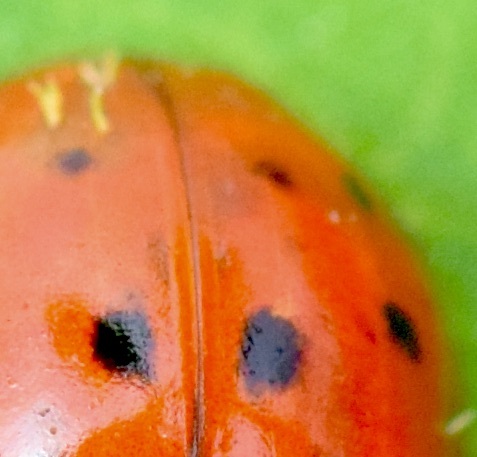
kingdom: Fungi
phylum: Ascomycota
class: Laboulbeniomycetes
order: Laboulbeniales
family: Laboulbeniaceae
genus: Hesperomyces
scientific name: Hesperomyces harmoniae
